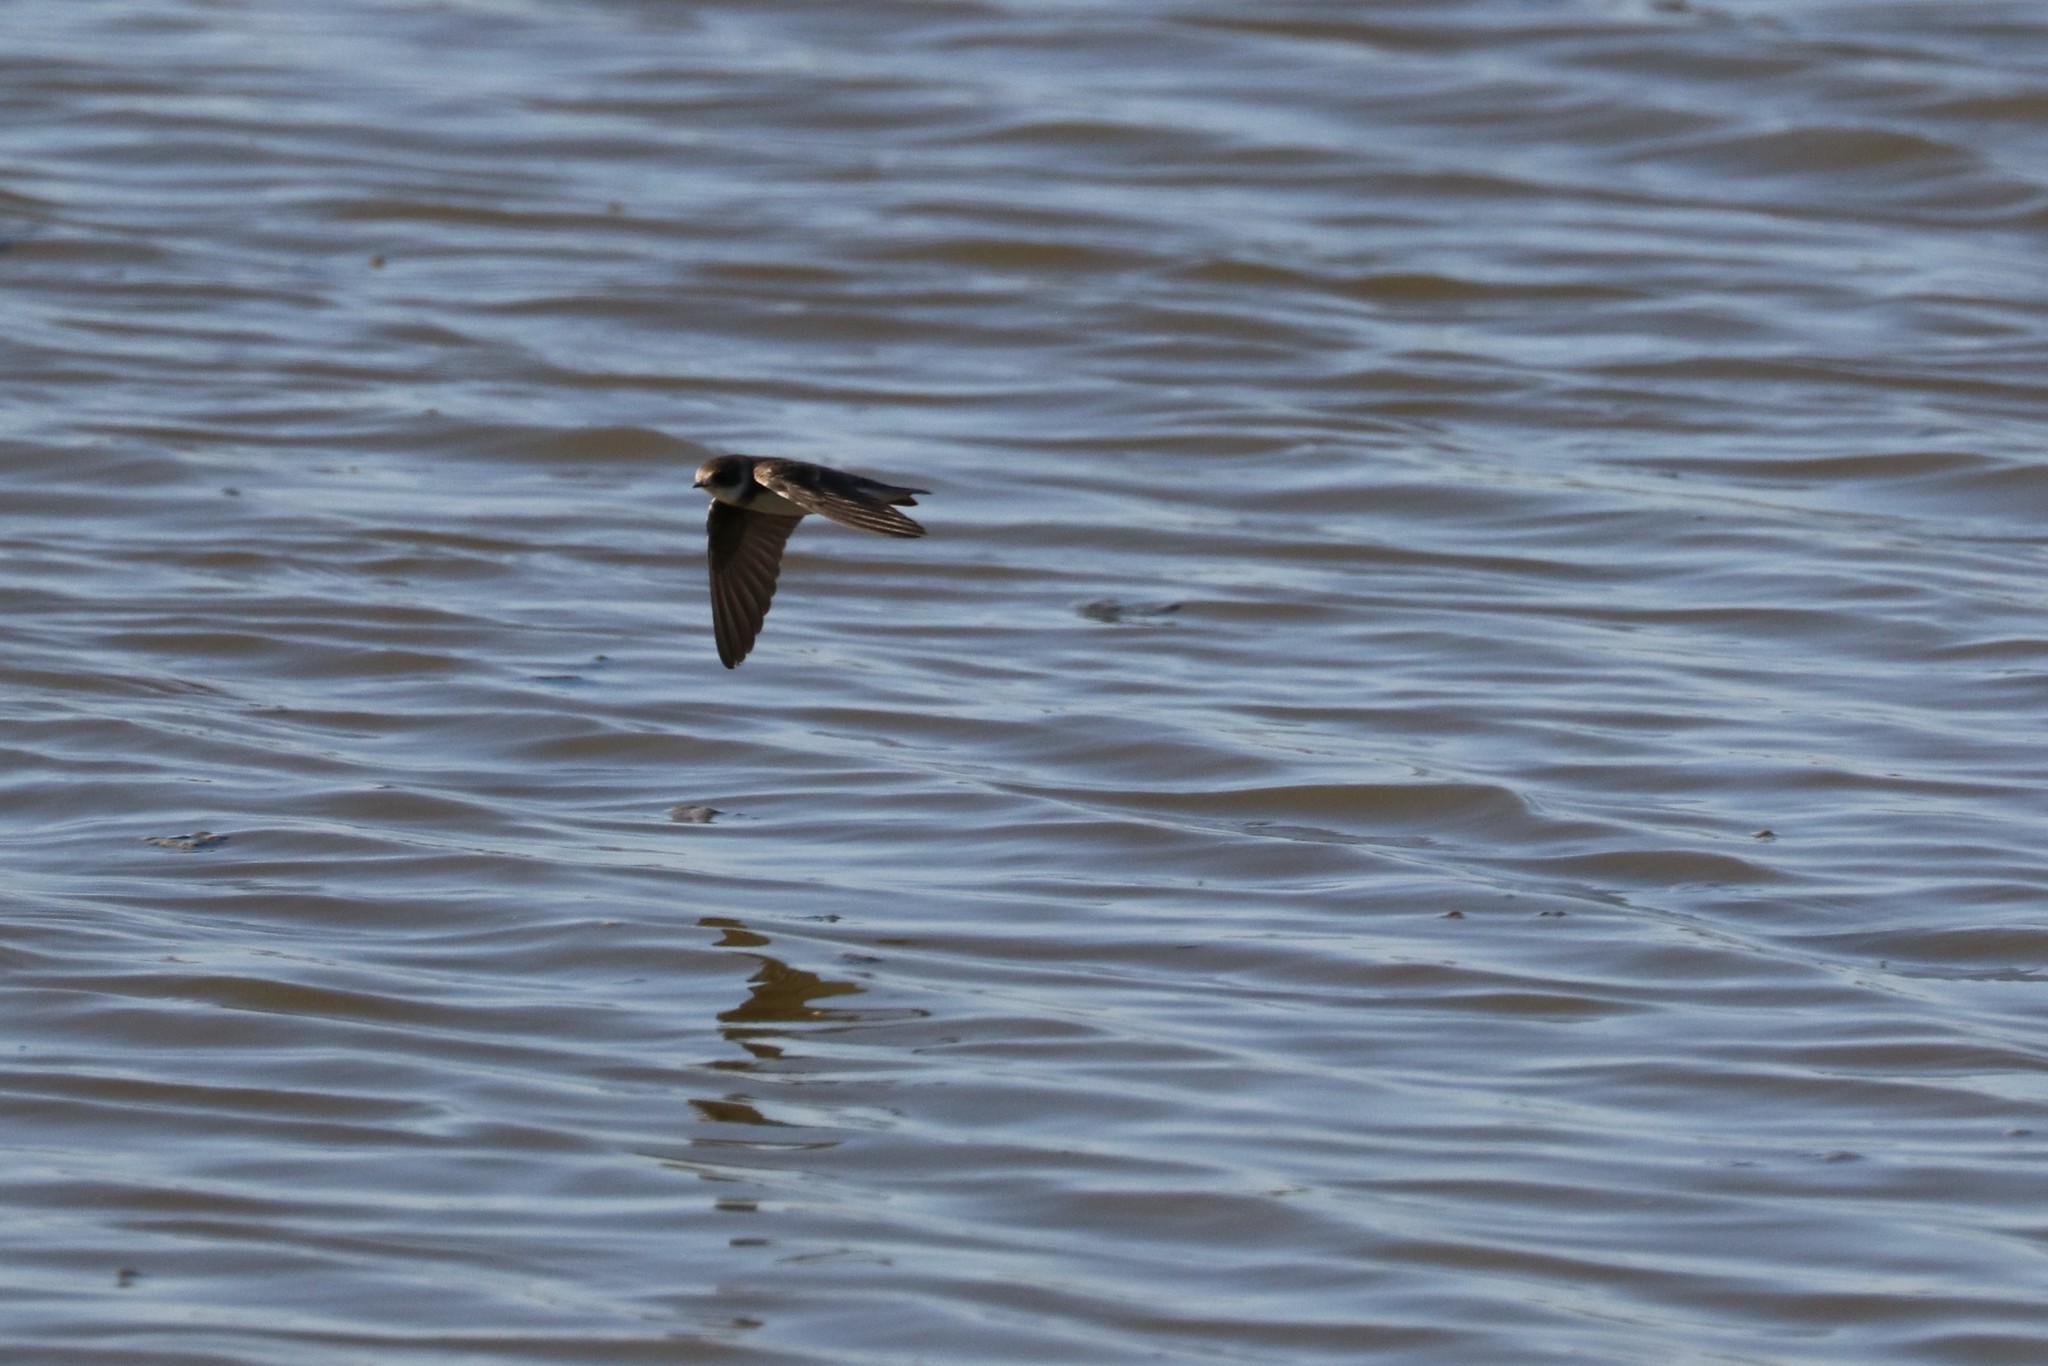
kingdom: Animalia
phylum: Chordata
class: Aves
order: Passeriformes
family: Hirundinidae
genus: Riparia
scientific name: Riparia riparia
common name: Sand martin
